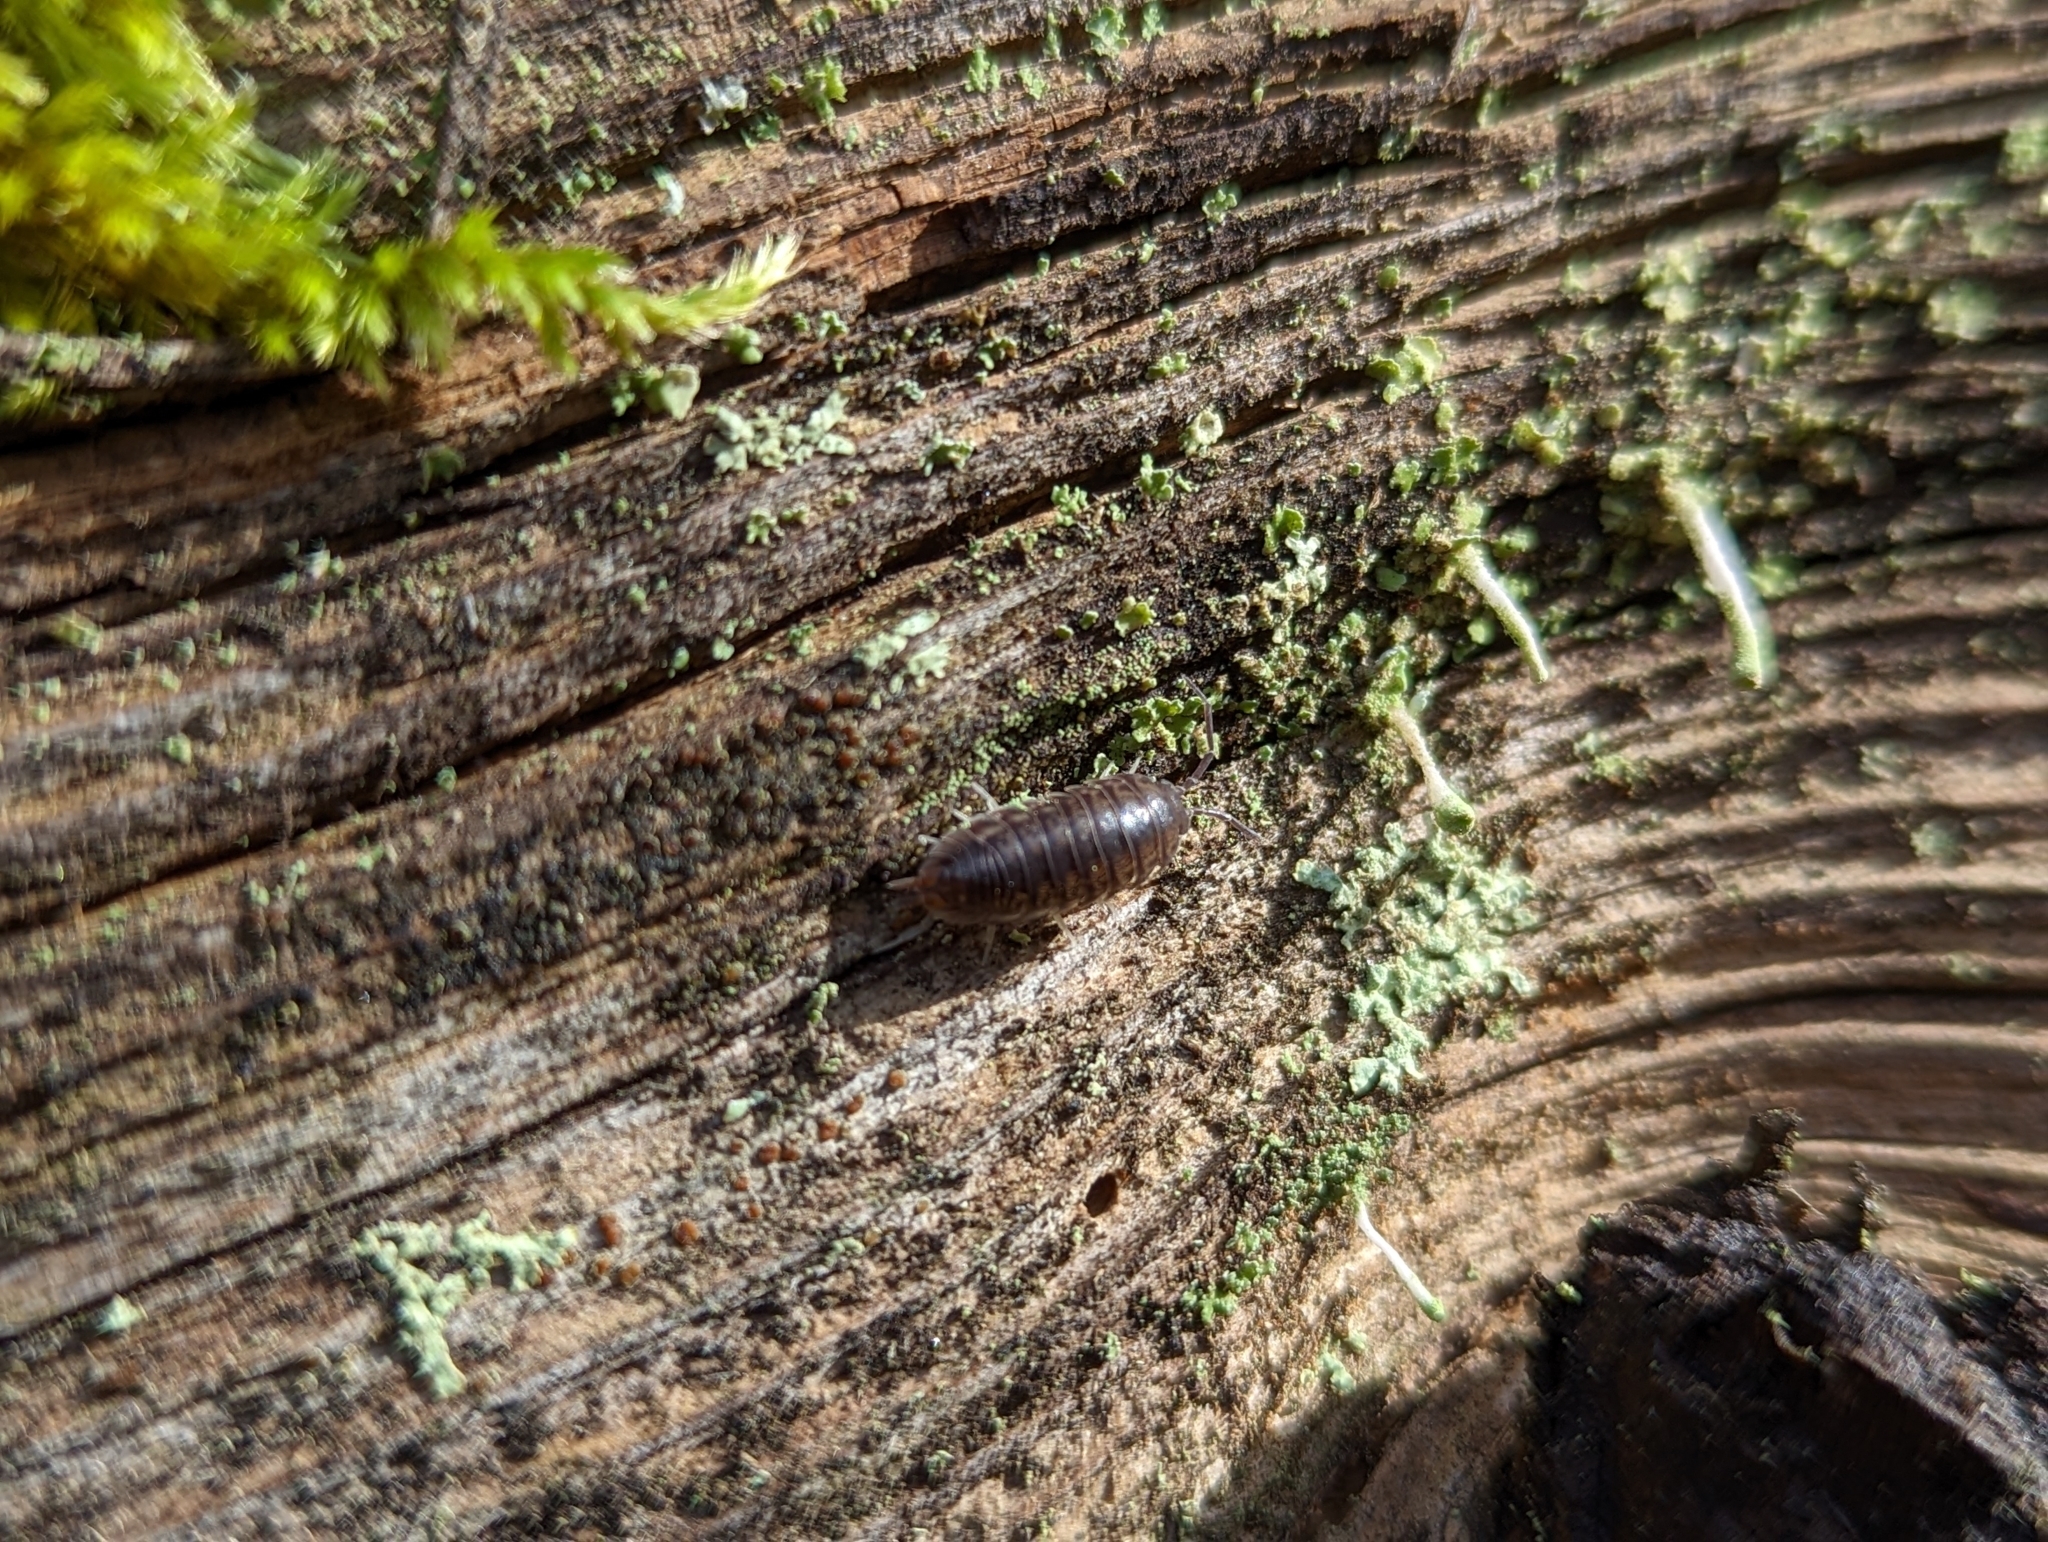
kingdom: Animalia
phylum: Arthropoda
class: Malacostraca
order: Isopoda
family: Cylisticidae
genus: Cylisticus
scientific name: Cylisticus convexus
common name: Curly woodlouse
